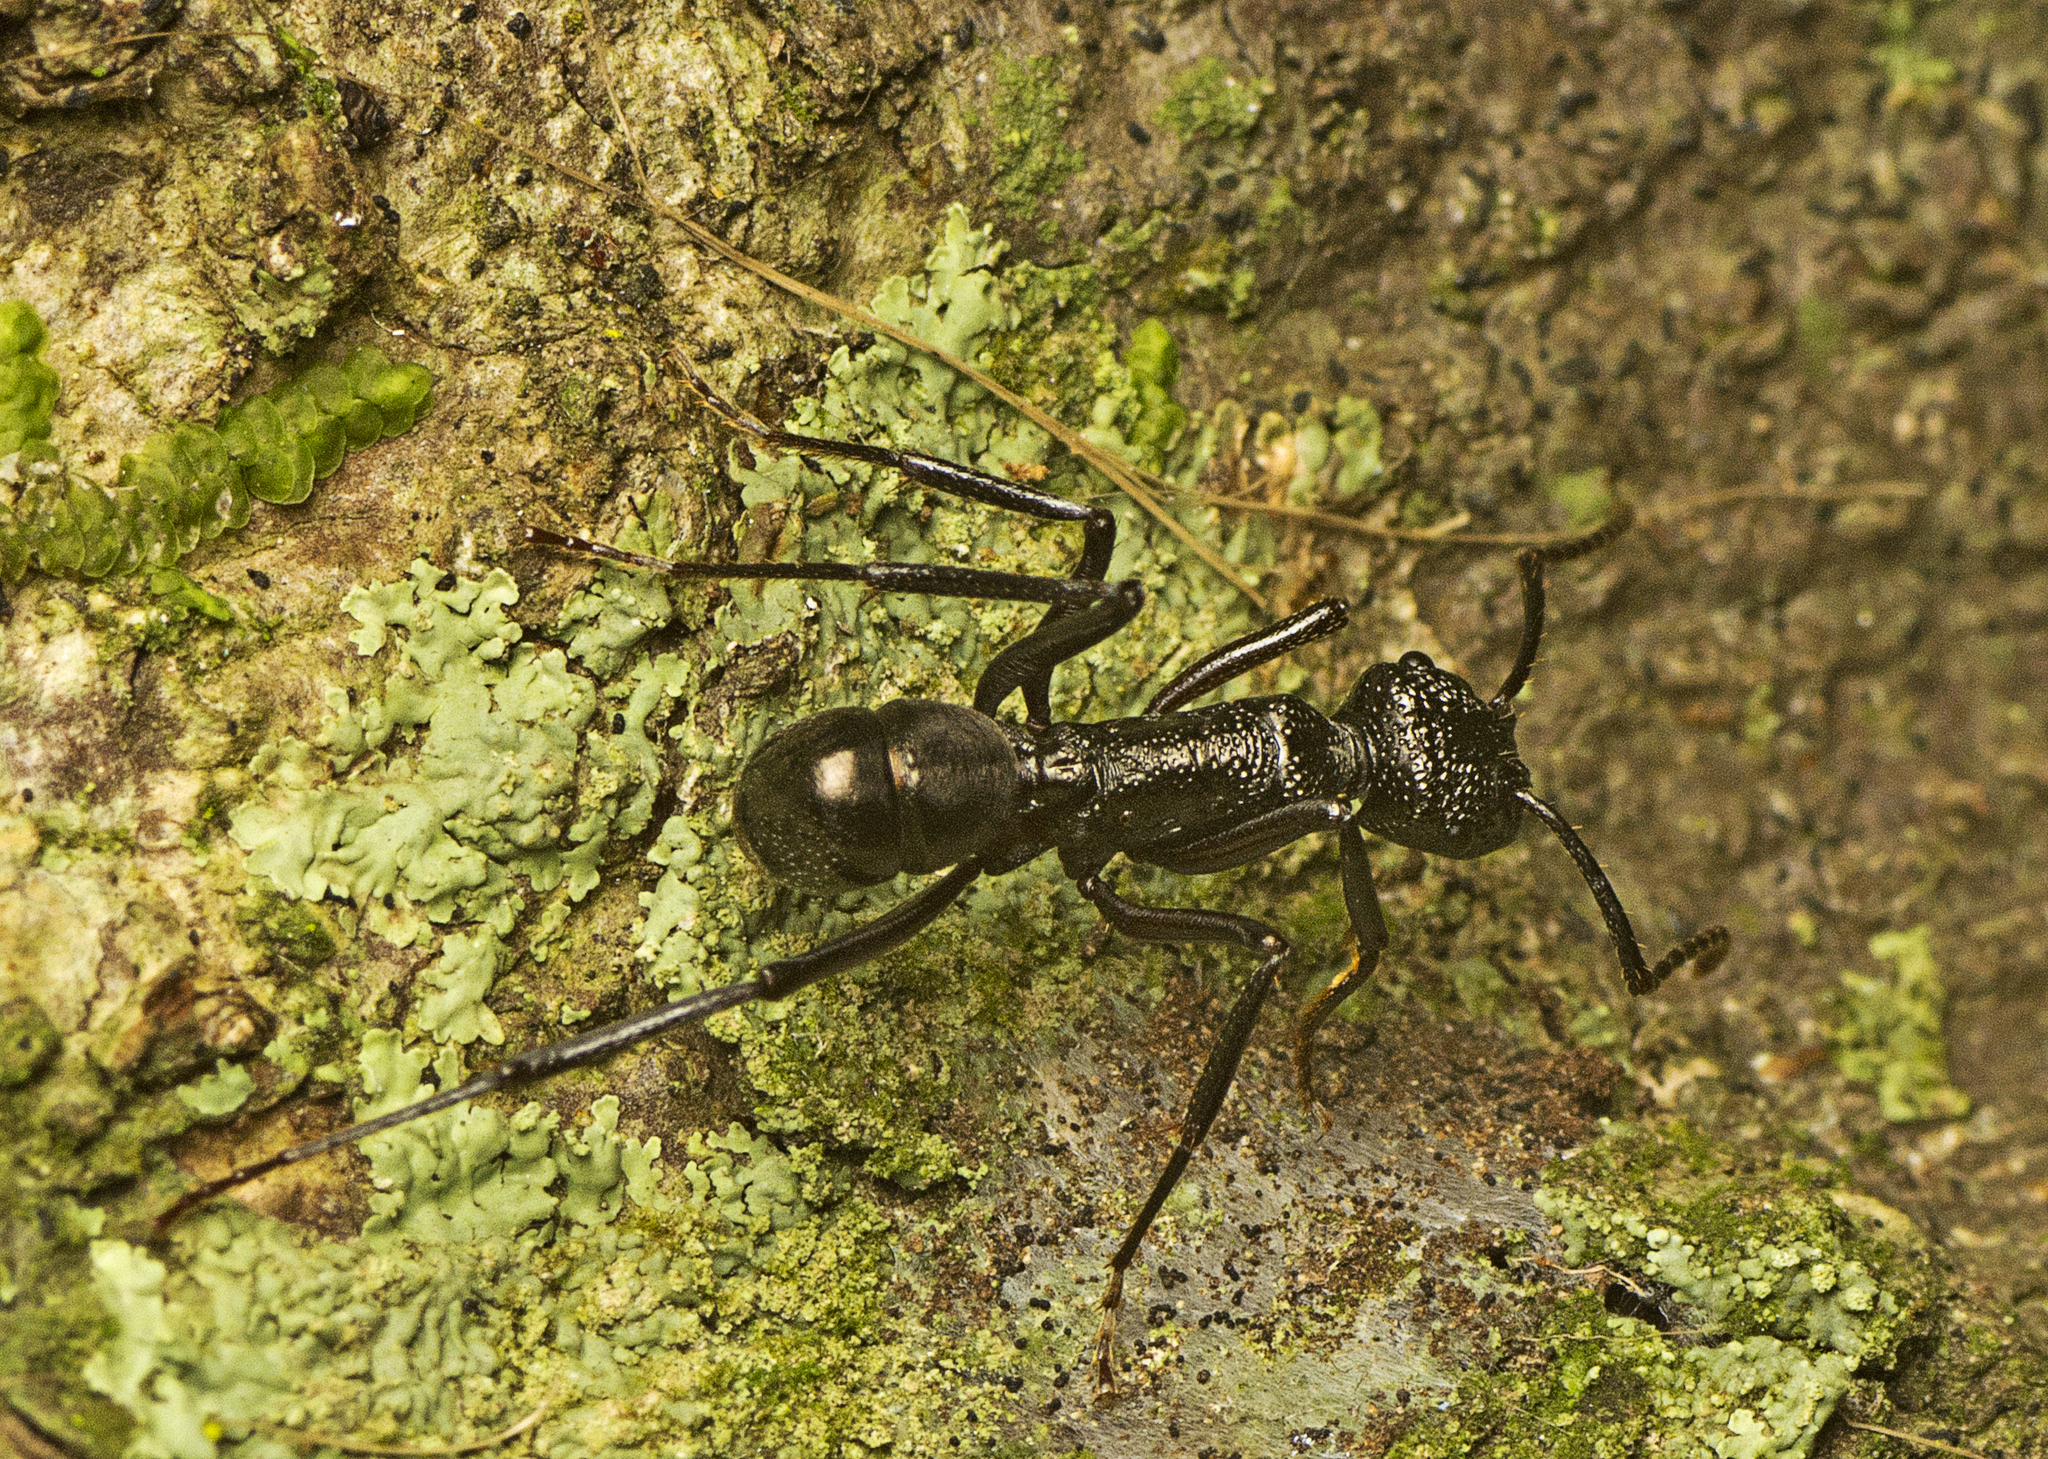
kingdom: Animalia
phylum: Arthropoda
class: Insecta
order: Hymenoptera
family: Formicidae
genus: Rhytidoponera
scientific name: Rhytidoponera nodifera
